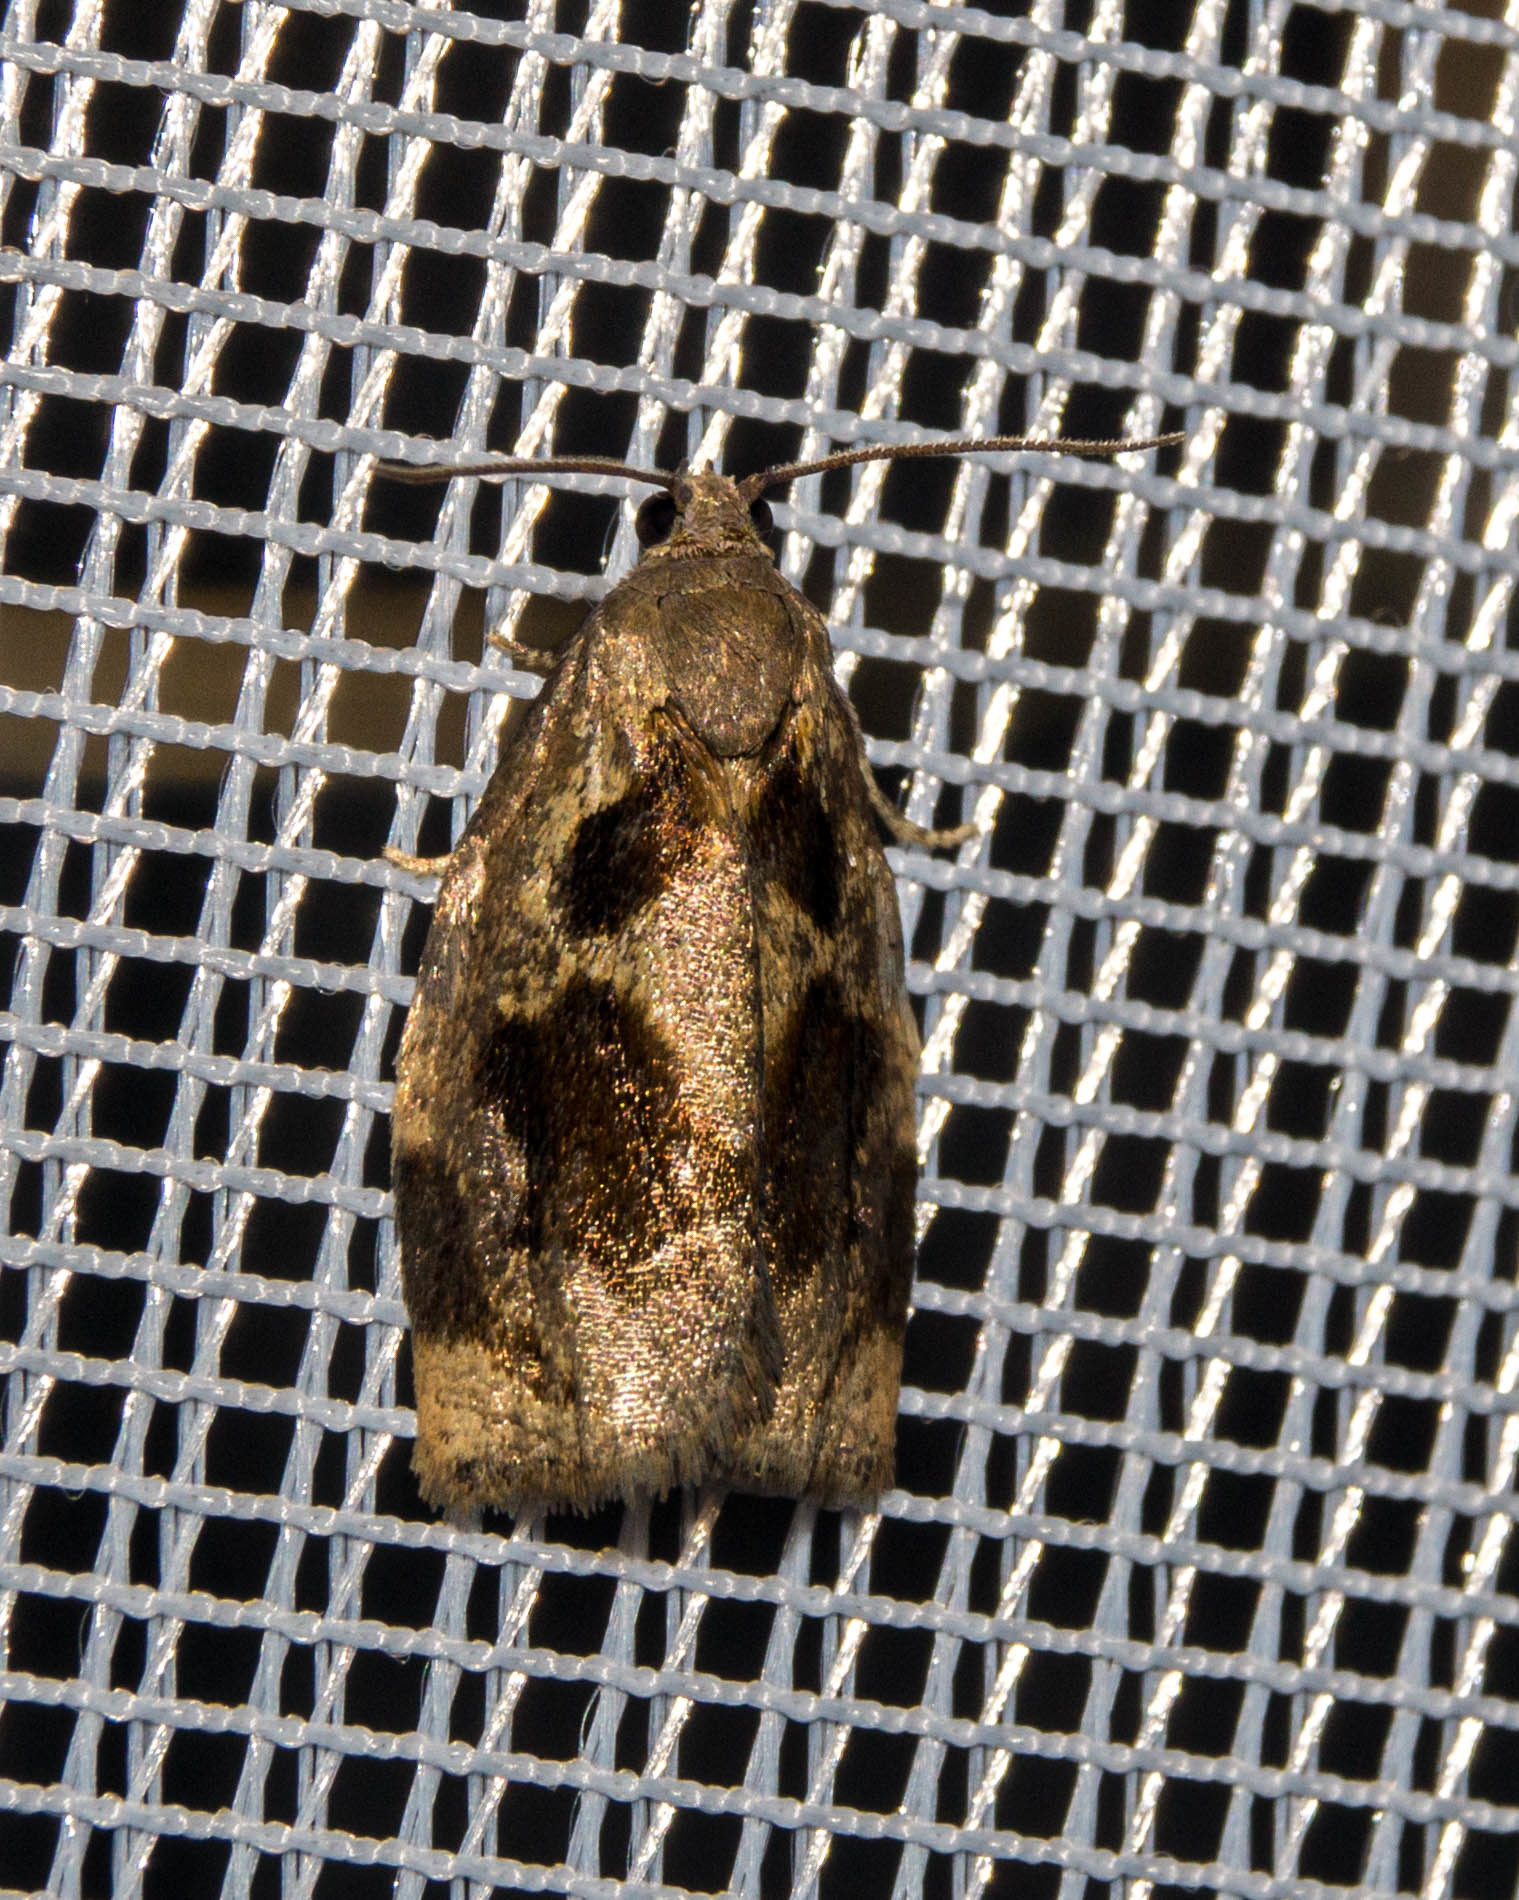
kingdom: Animalia
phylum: Arthropoda
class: Insecta
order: Lepidoptera
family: Tortricidae
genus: Archips
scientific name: Archips crataegana
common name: Brown oak tortrix
